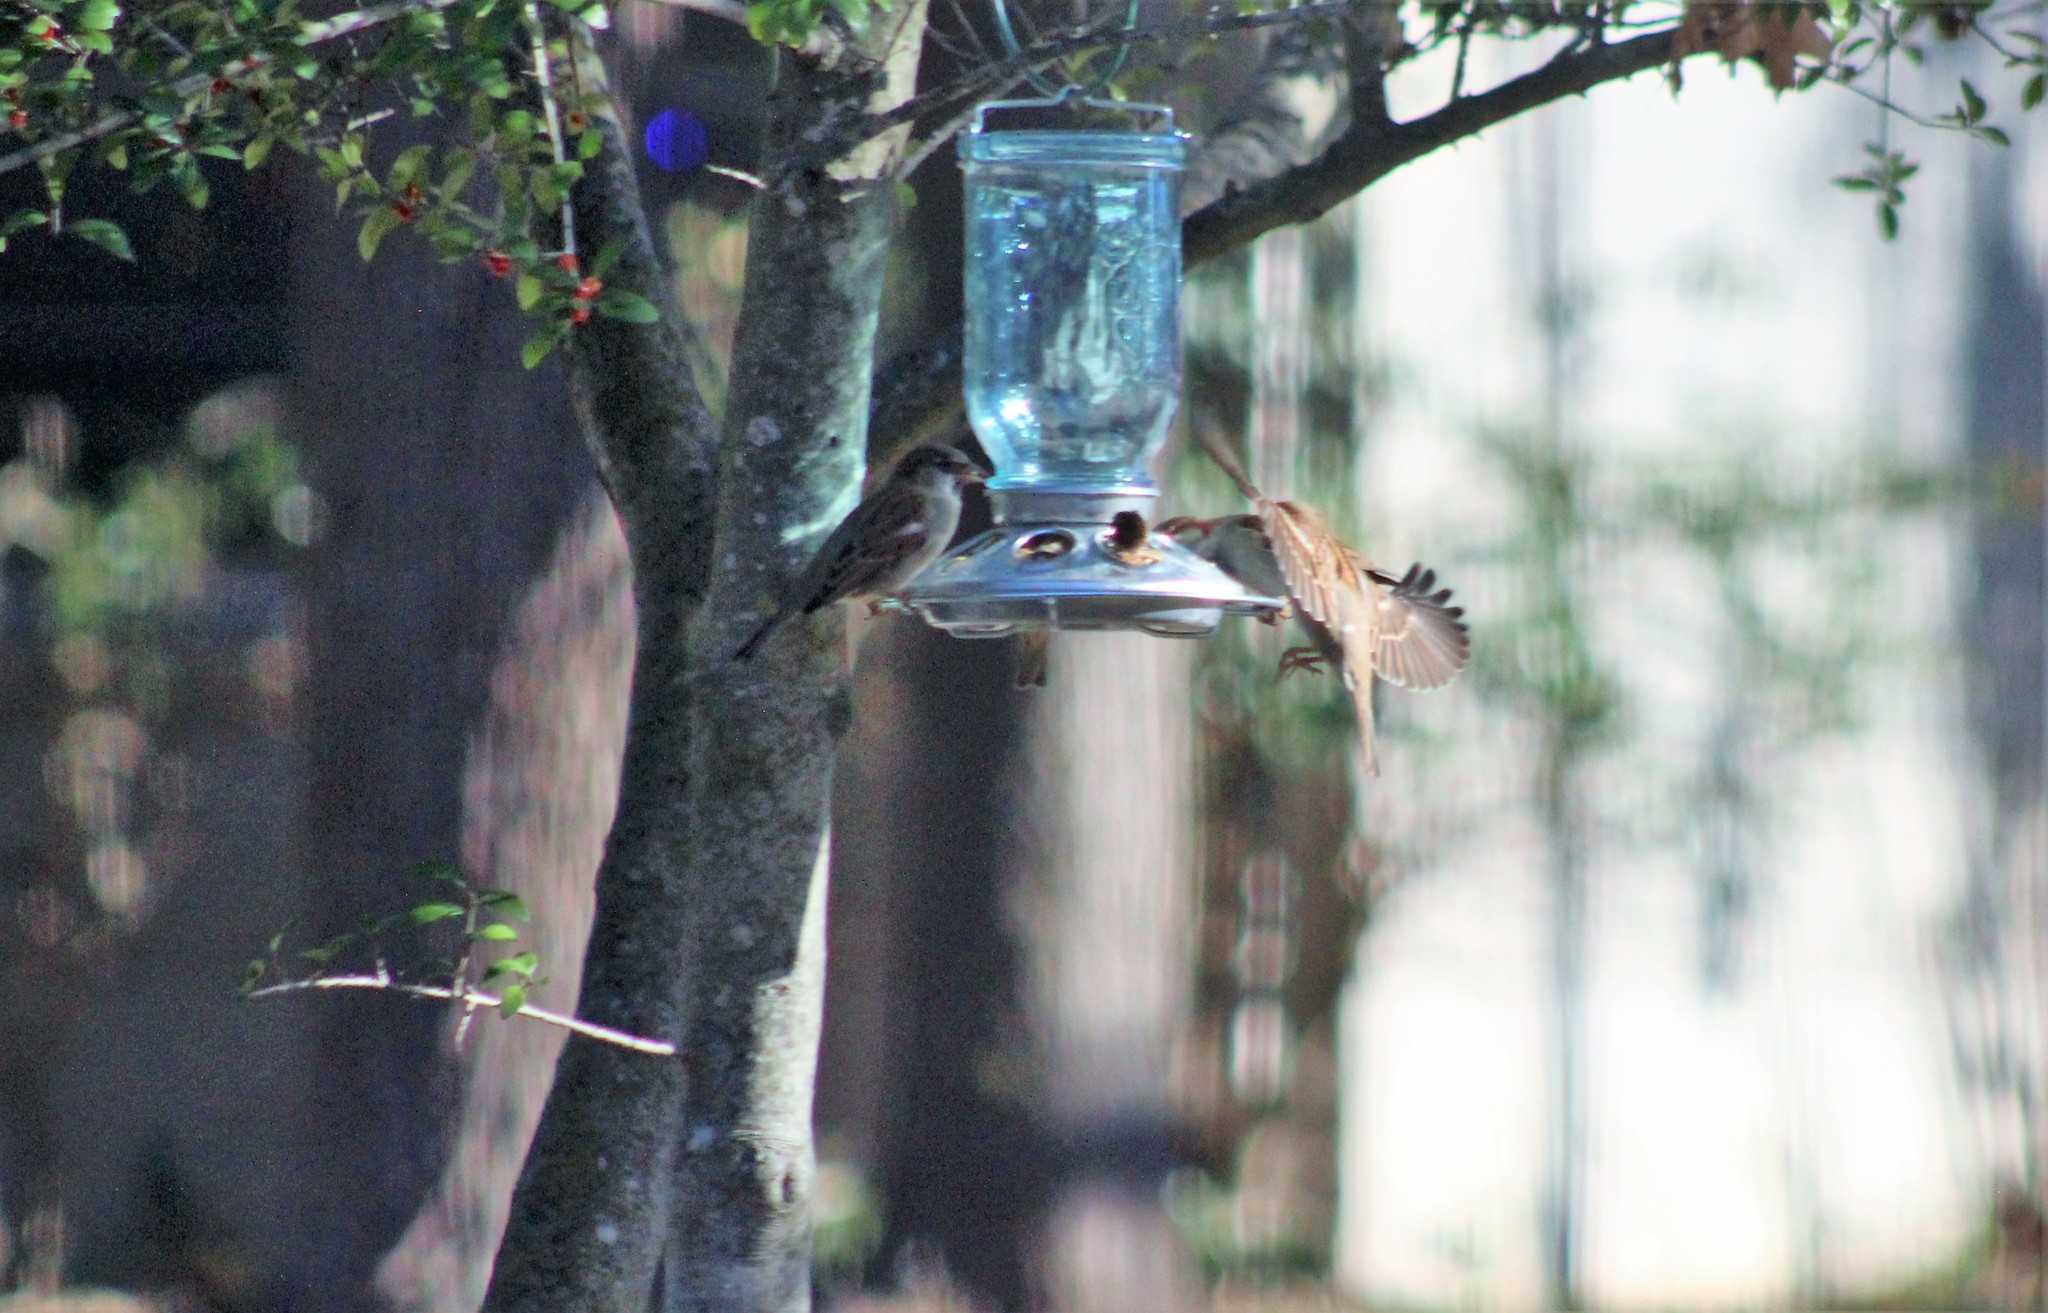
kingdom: Animalia
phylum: Chordata
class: Aves
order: Passeriformes
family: Passeridae
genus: Passer
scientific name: Passer domesticus
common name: House sparrow
